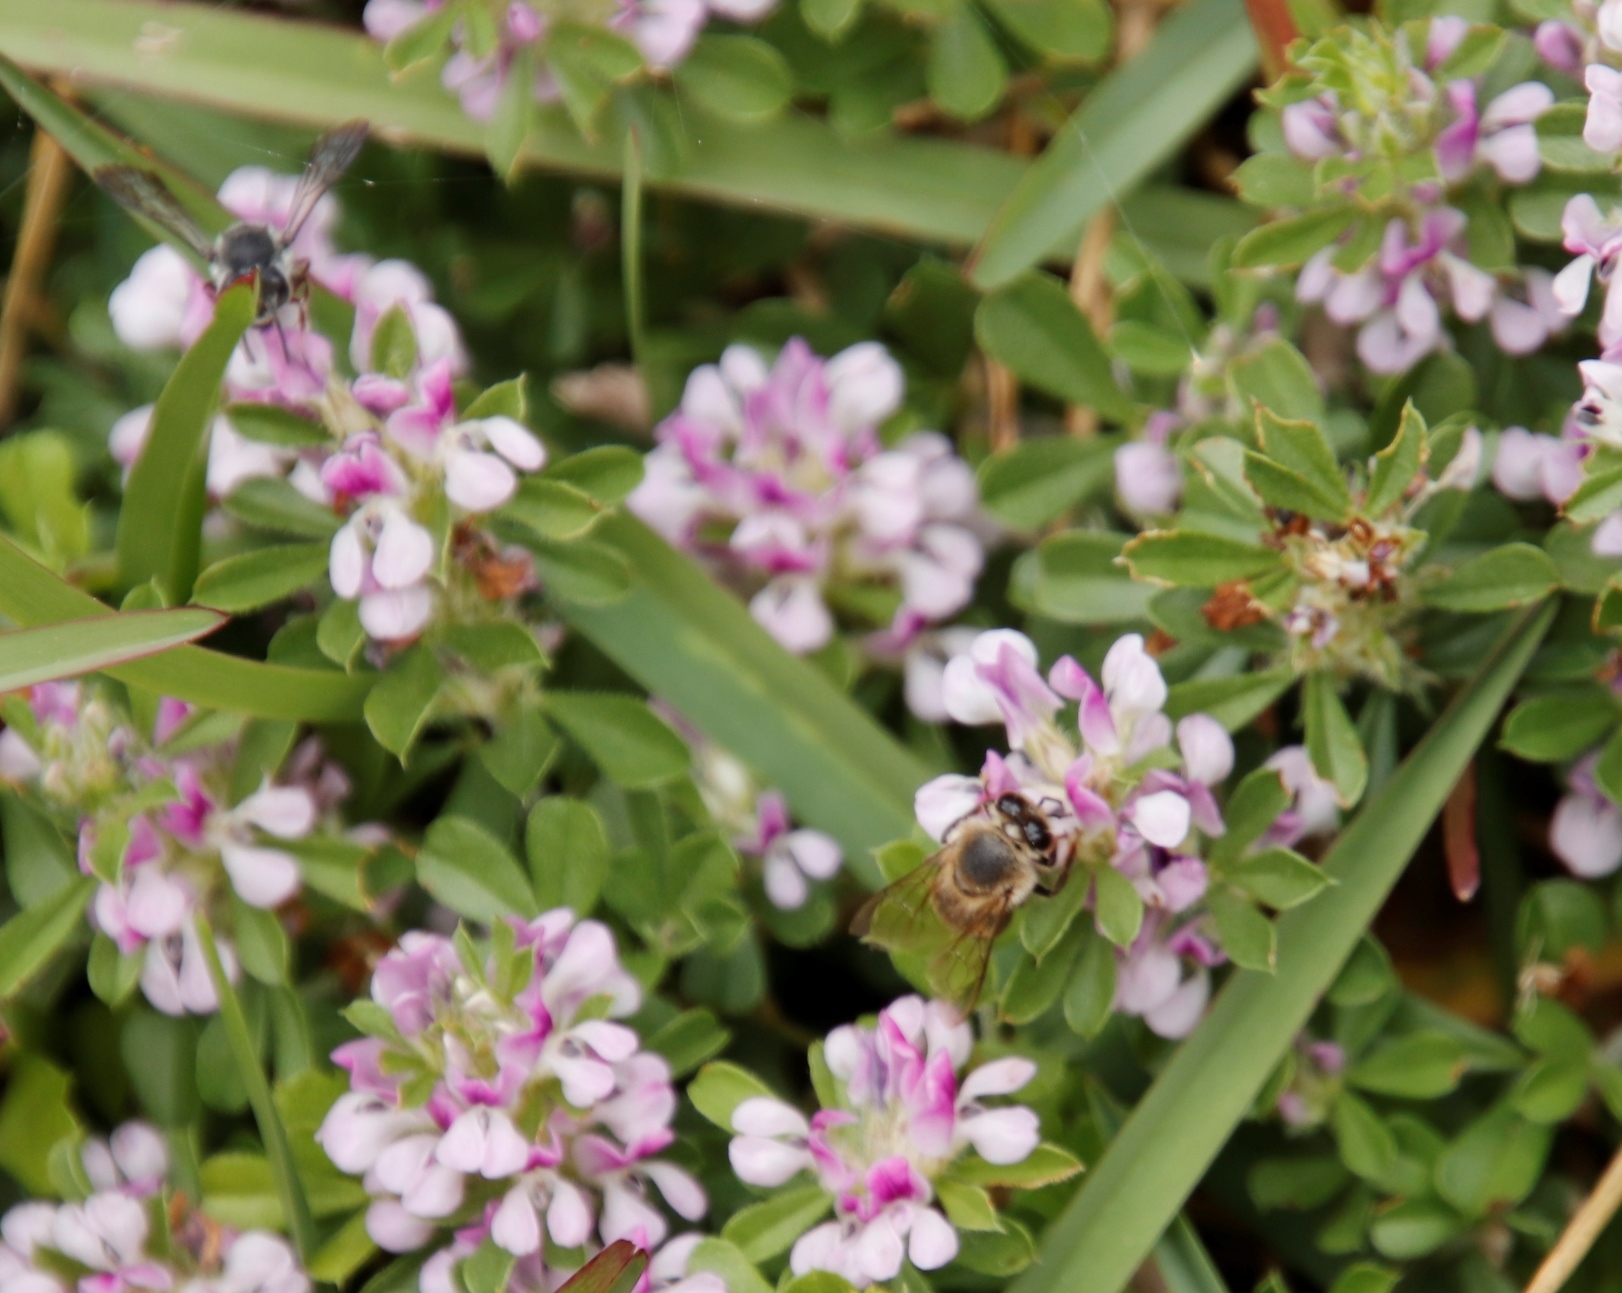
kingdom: Plantae
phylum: Tracheophyta
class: Magnoliopsida
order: Fabales
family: Fabaceae
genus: Psoralea
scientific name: Psoralea
